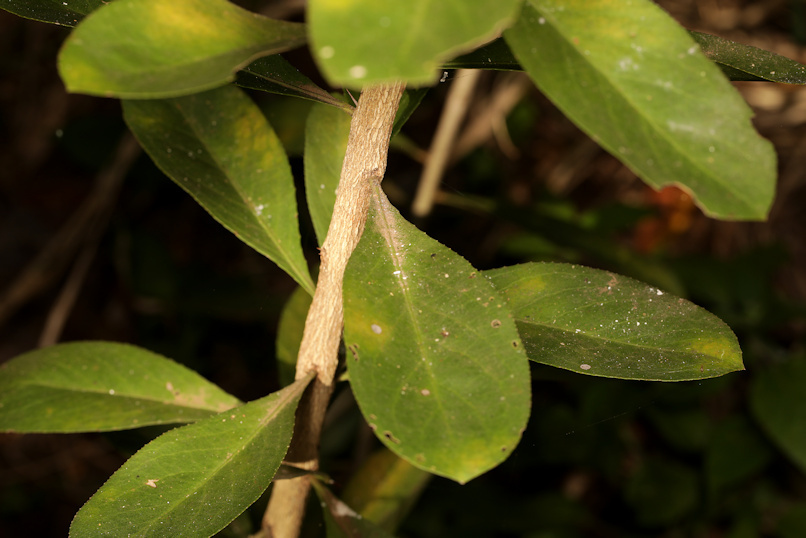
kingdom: Plantae
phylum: Tracheophyta
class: Magnoliopsida
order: Celastrales
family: Celastraceae
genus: Gymnosporia
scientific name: Gymnosporia senegalensis
